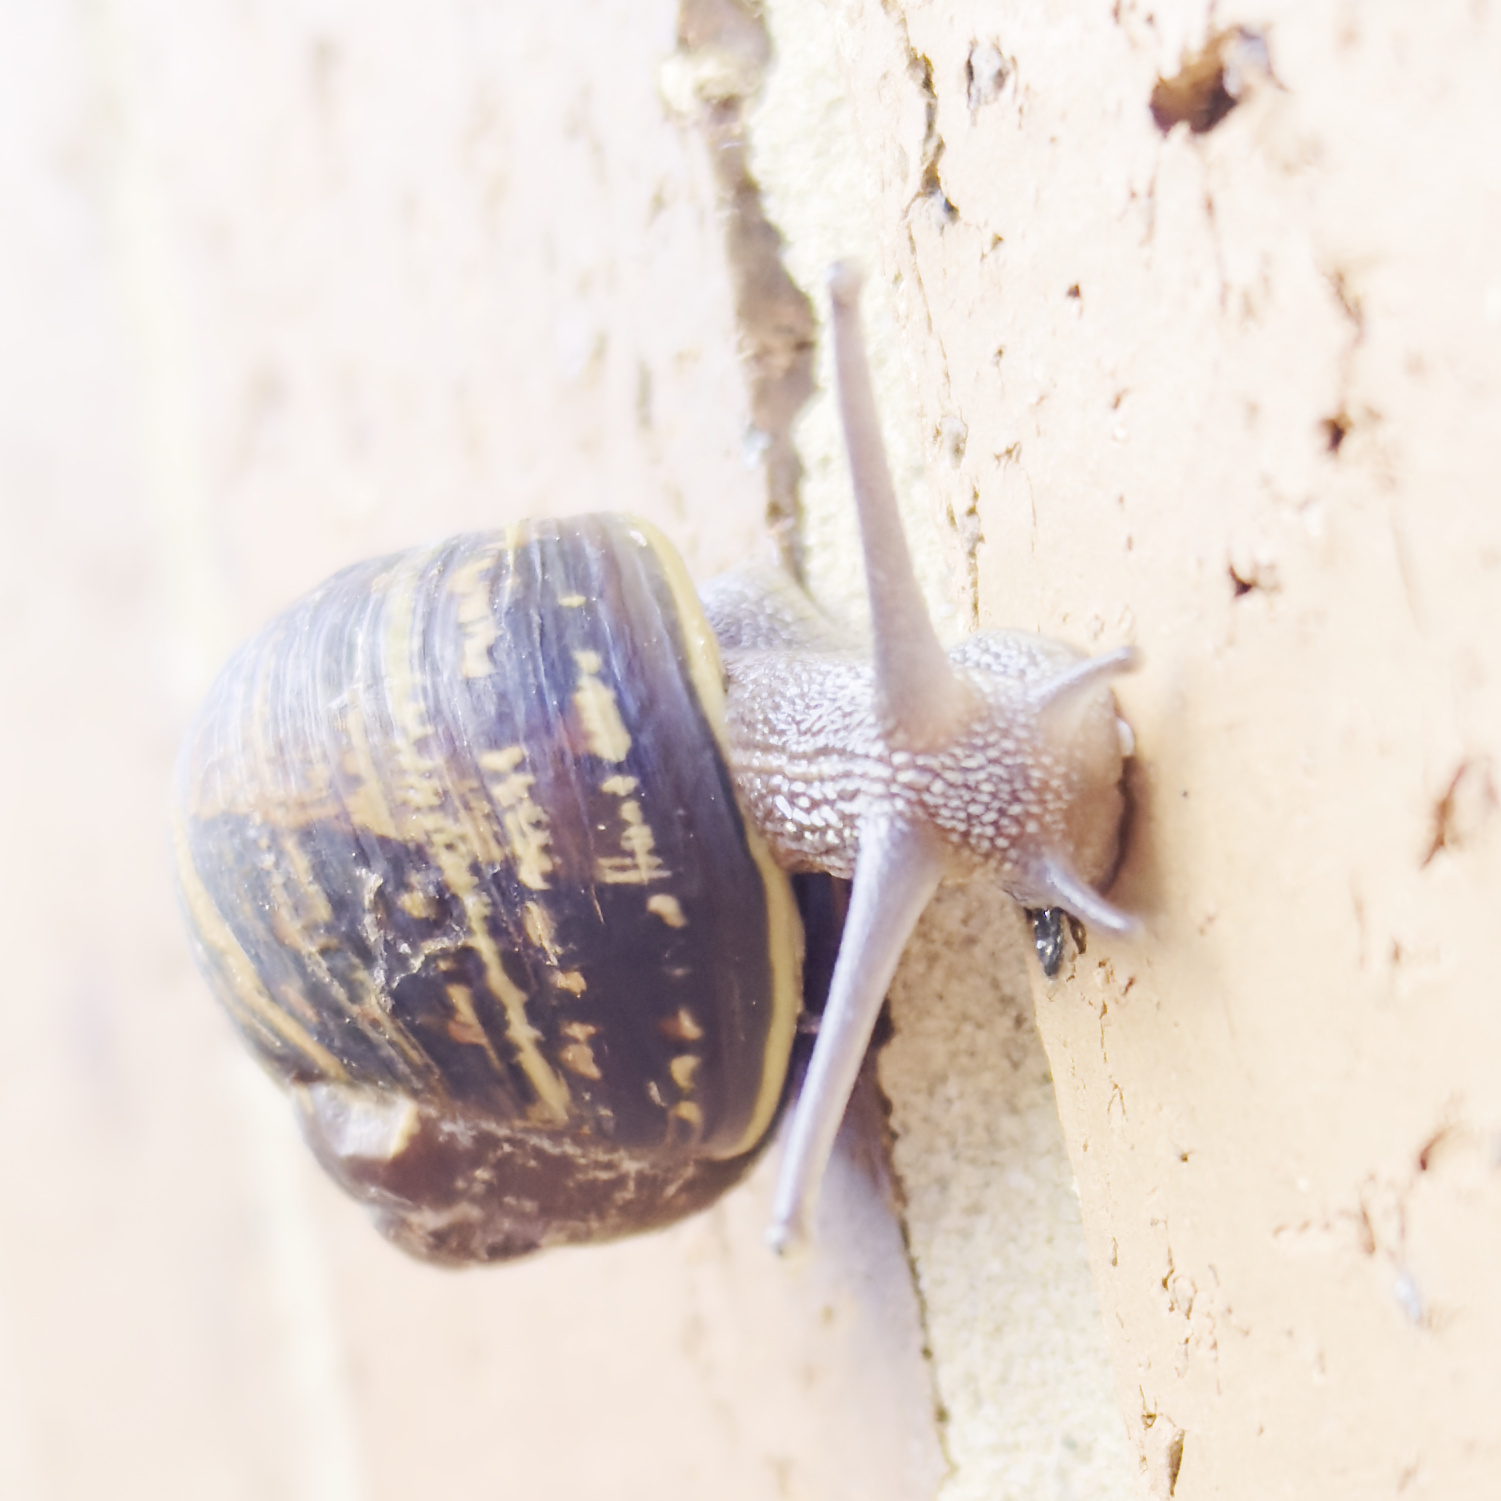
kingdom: Animalia
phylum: Mollusca
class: Gastropoda
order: Stylommatophora
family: Helicidae
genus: Cornu
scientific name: Cornu aspersum
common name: Brown garden snail
